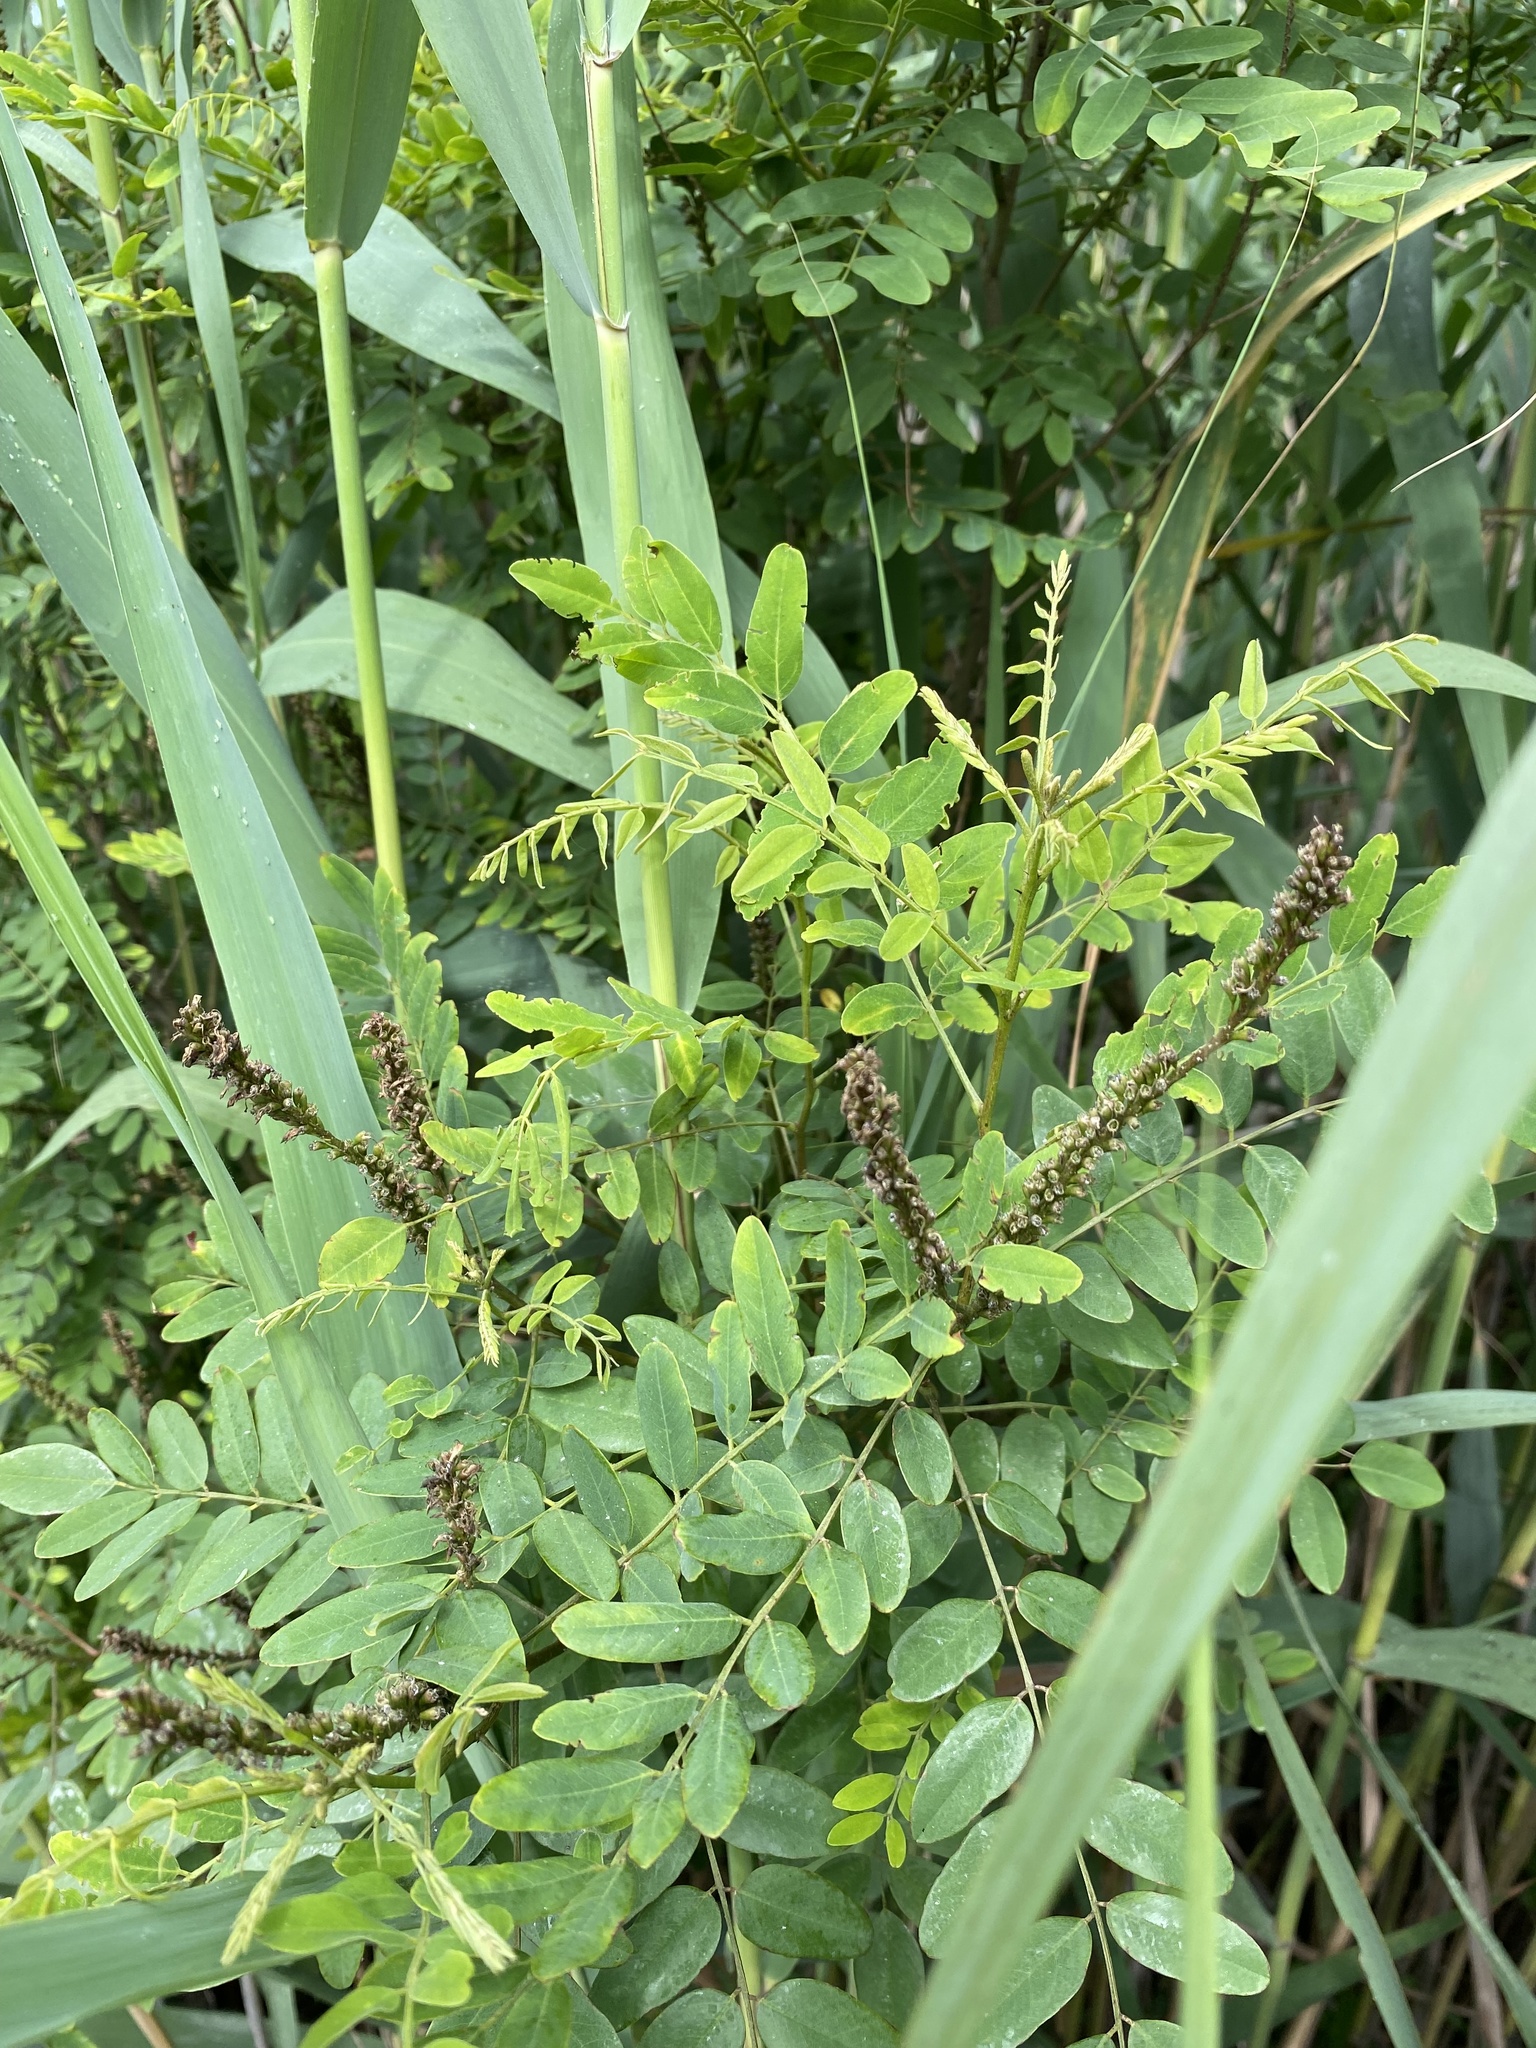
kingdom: Plantae
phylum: Tracheophyta
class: Magnoliopsida
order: Fabales
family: Fabaceae
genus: Amorpha
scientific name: Amorpha fruticosa
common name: False indigo
